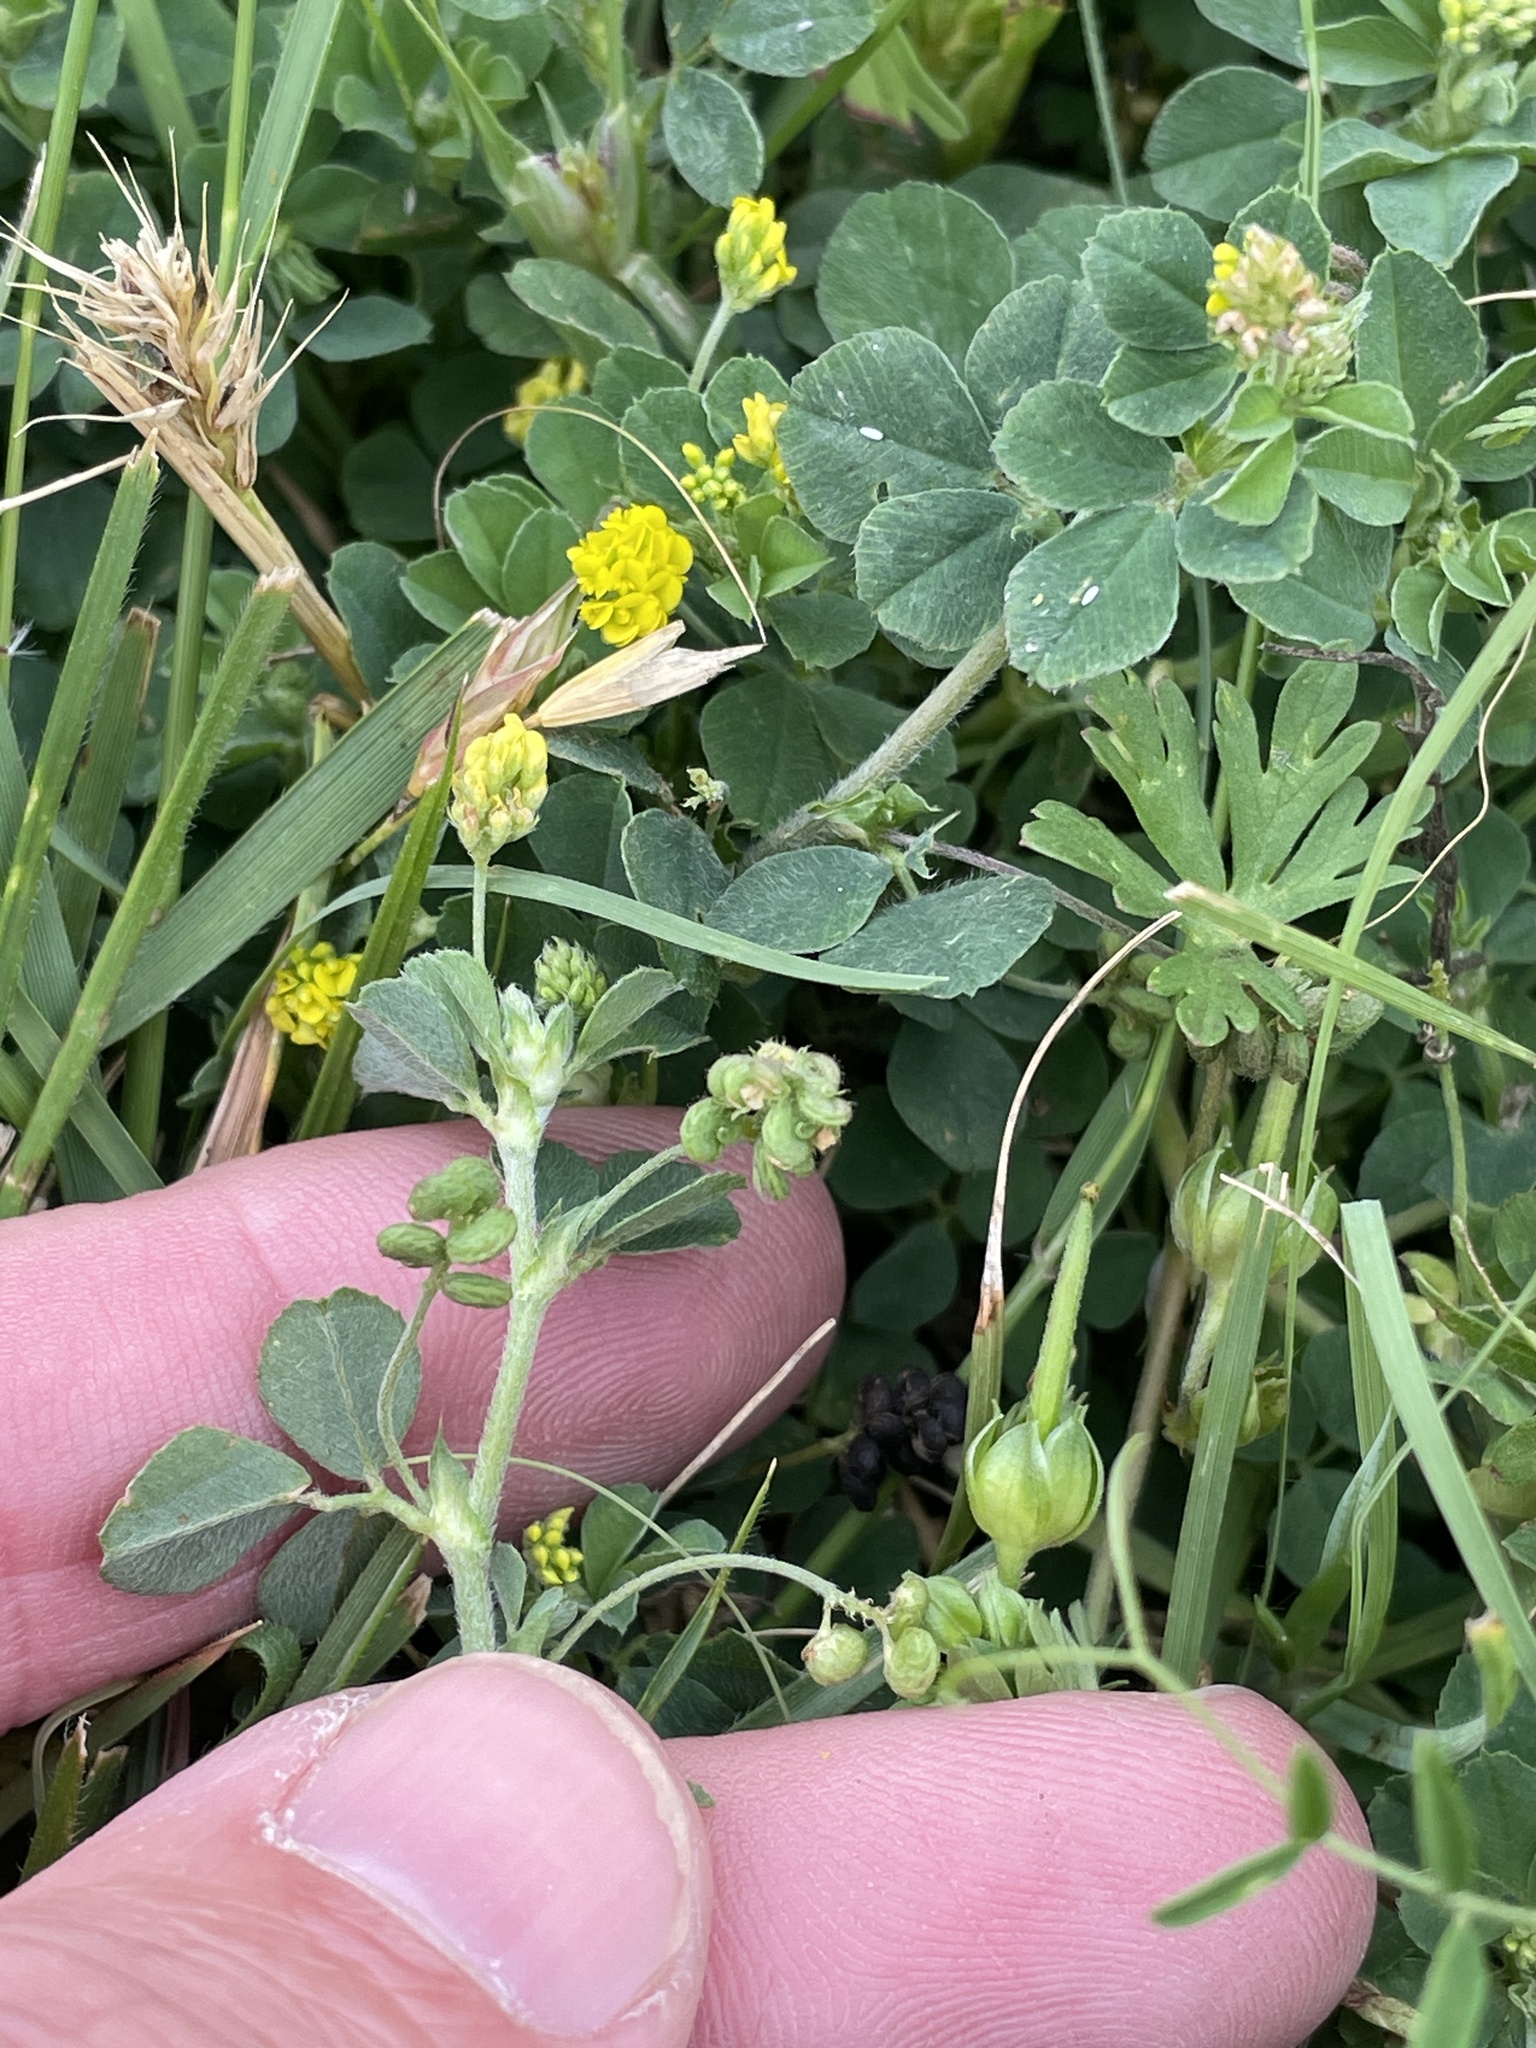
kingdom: Plantae
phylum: Tracheophyta
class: Magnoliopsida
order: Fabales
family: Fabaceae
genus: Medicago
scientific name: Medicago lupulina
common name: Black medick
